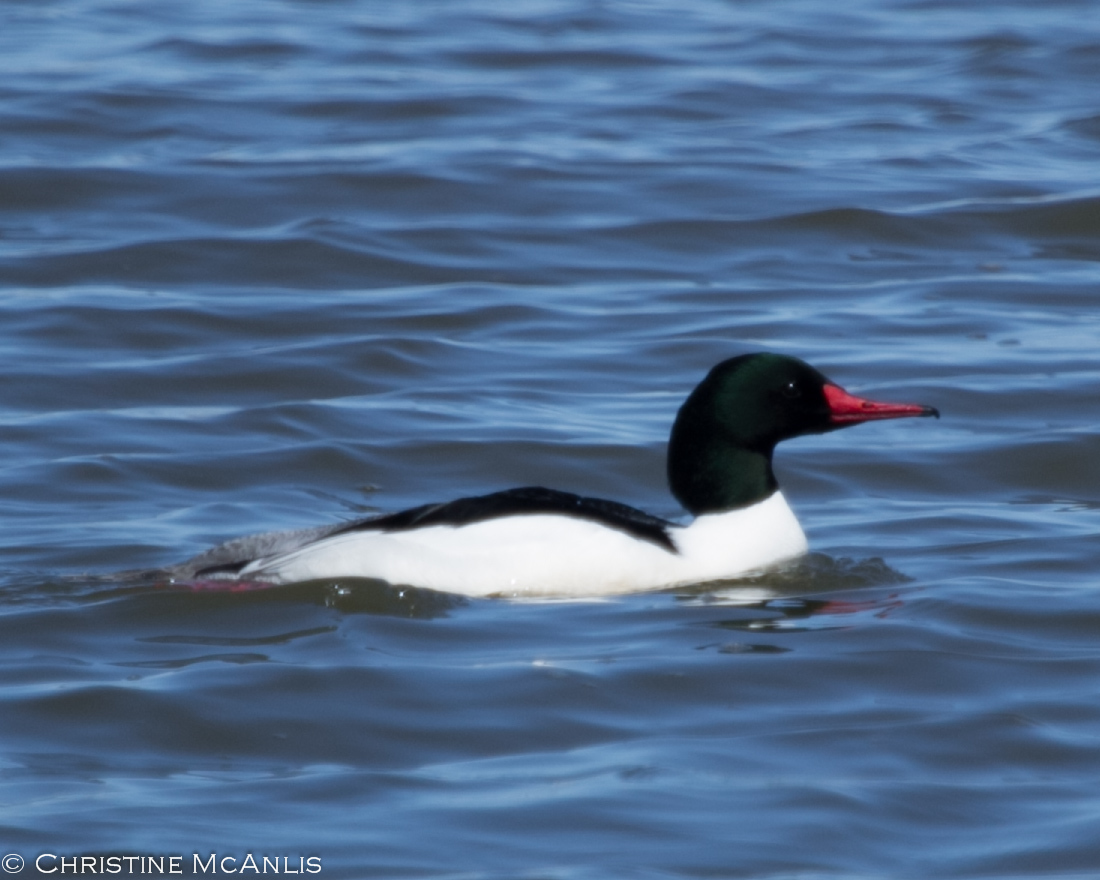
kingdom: Animalia
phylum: Chordata
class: Aves
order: Anseriformes
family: Anatidae
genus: Mergus
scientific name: Mergus merganser
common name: Common merganser
